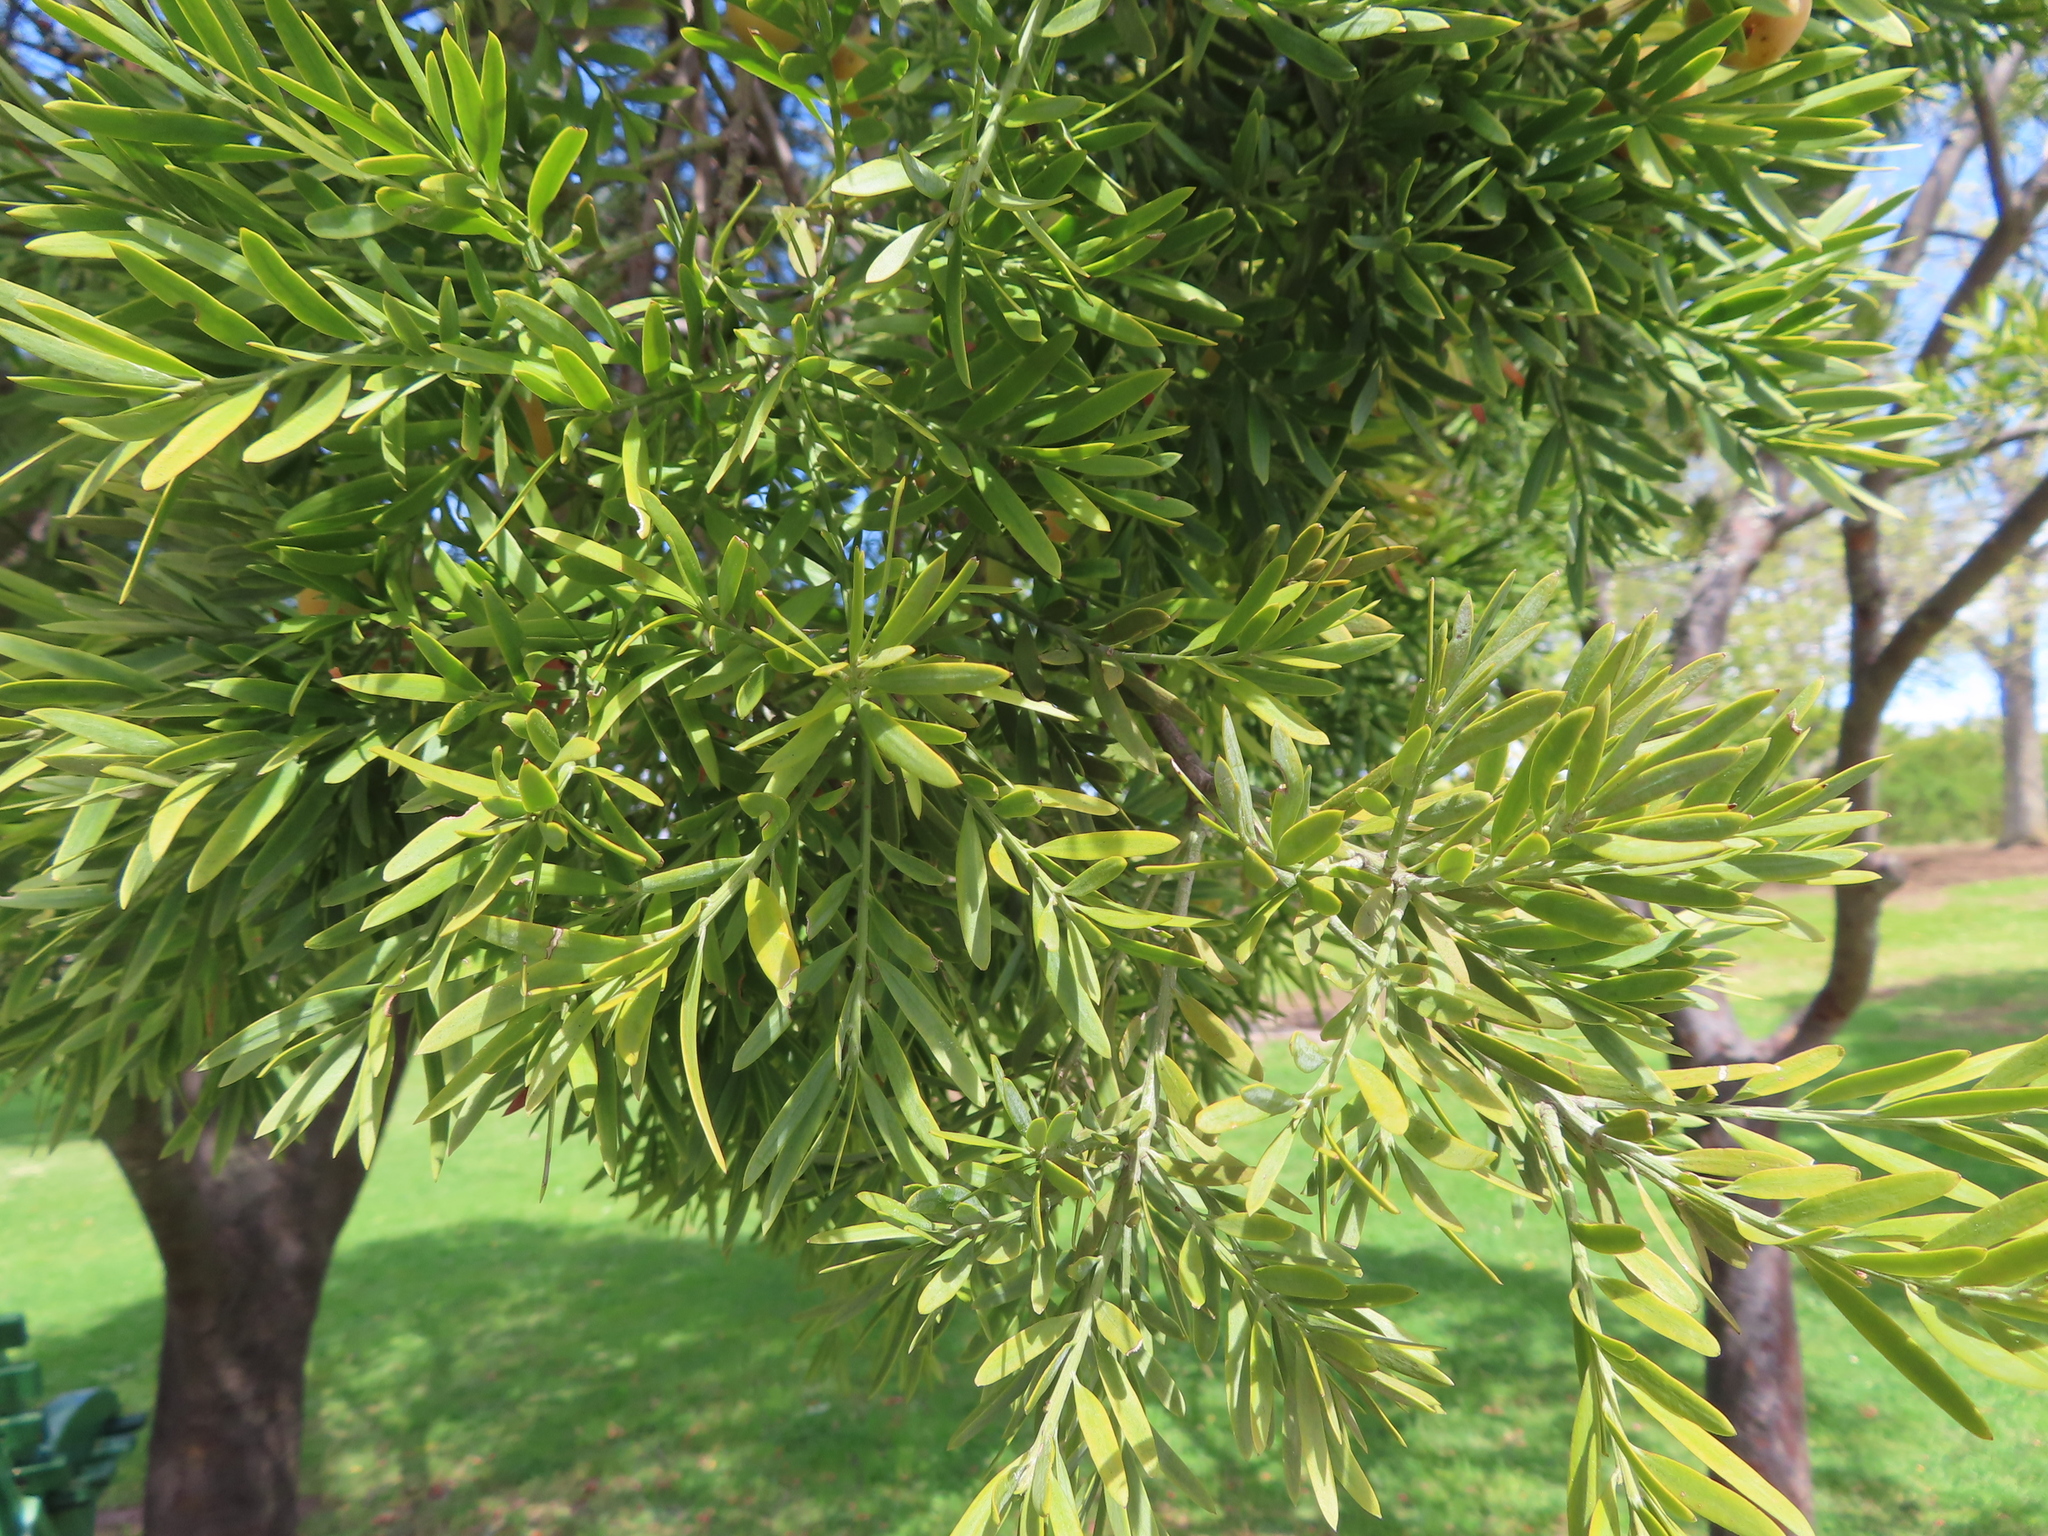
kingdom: Plantae
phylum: Tracheophyta
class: Pinopsida
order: Pinales
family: Podocarpaceae
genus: Afrocarpus
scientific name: Afrocarpus falcatus
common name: Bastard yellowwood
